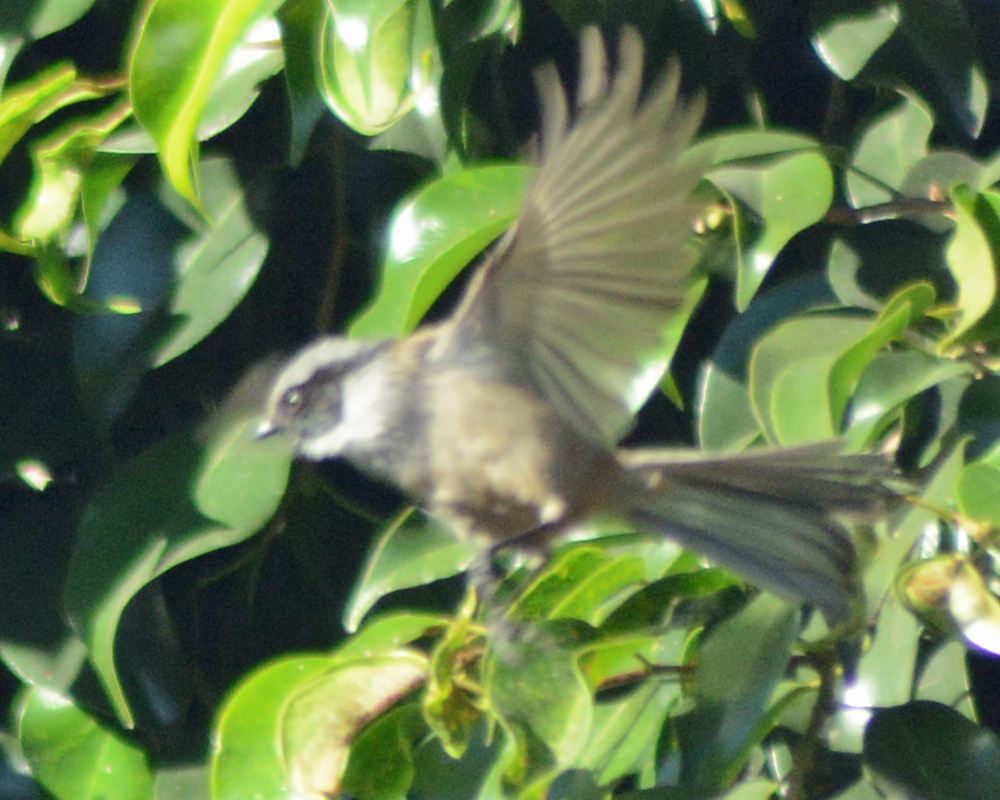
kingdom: Animalia
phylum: Chordata
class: Aves
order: Passeriformes
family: Aegithalidae
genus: Psaltriparus
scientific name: Psaltriparus minimus
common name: American bushtit
